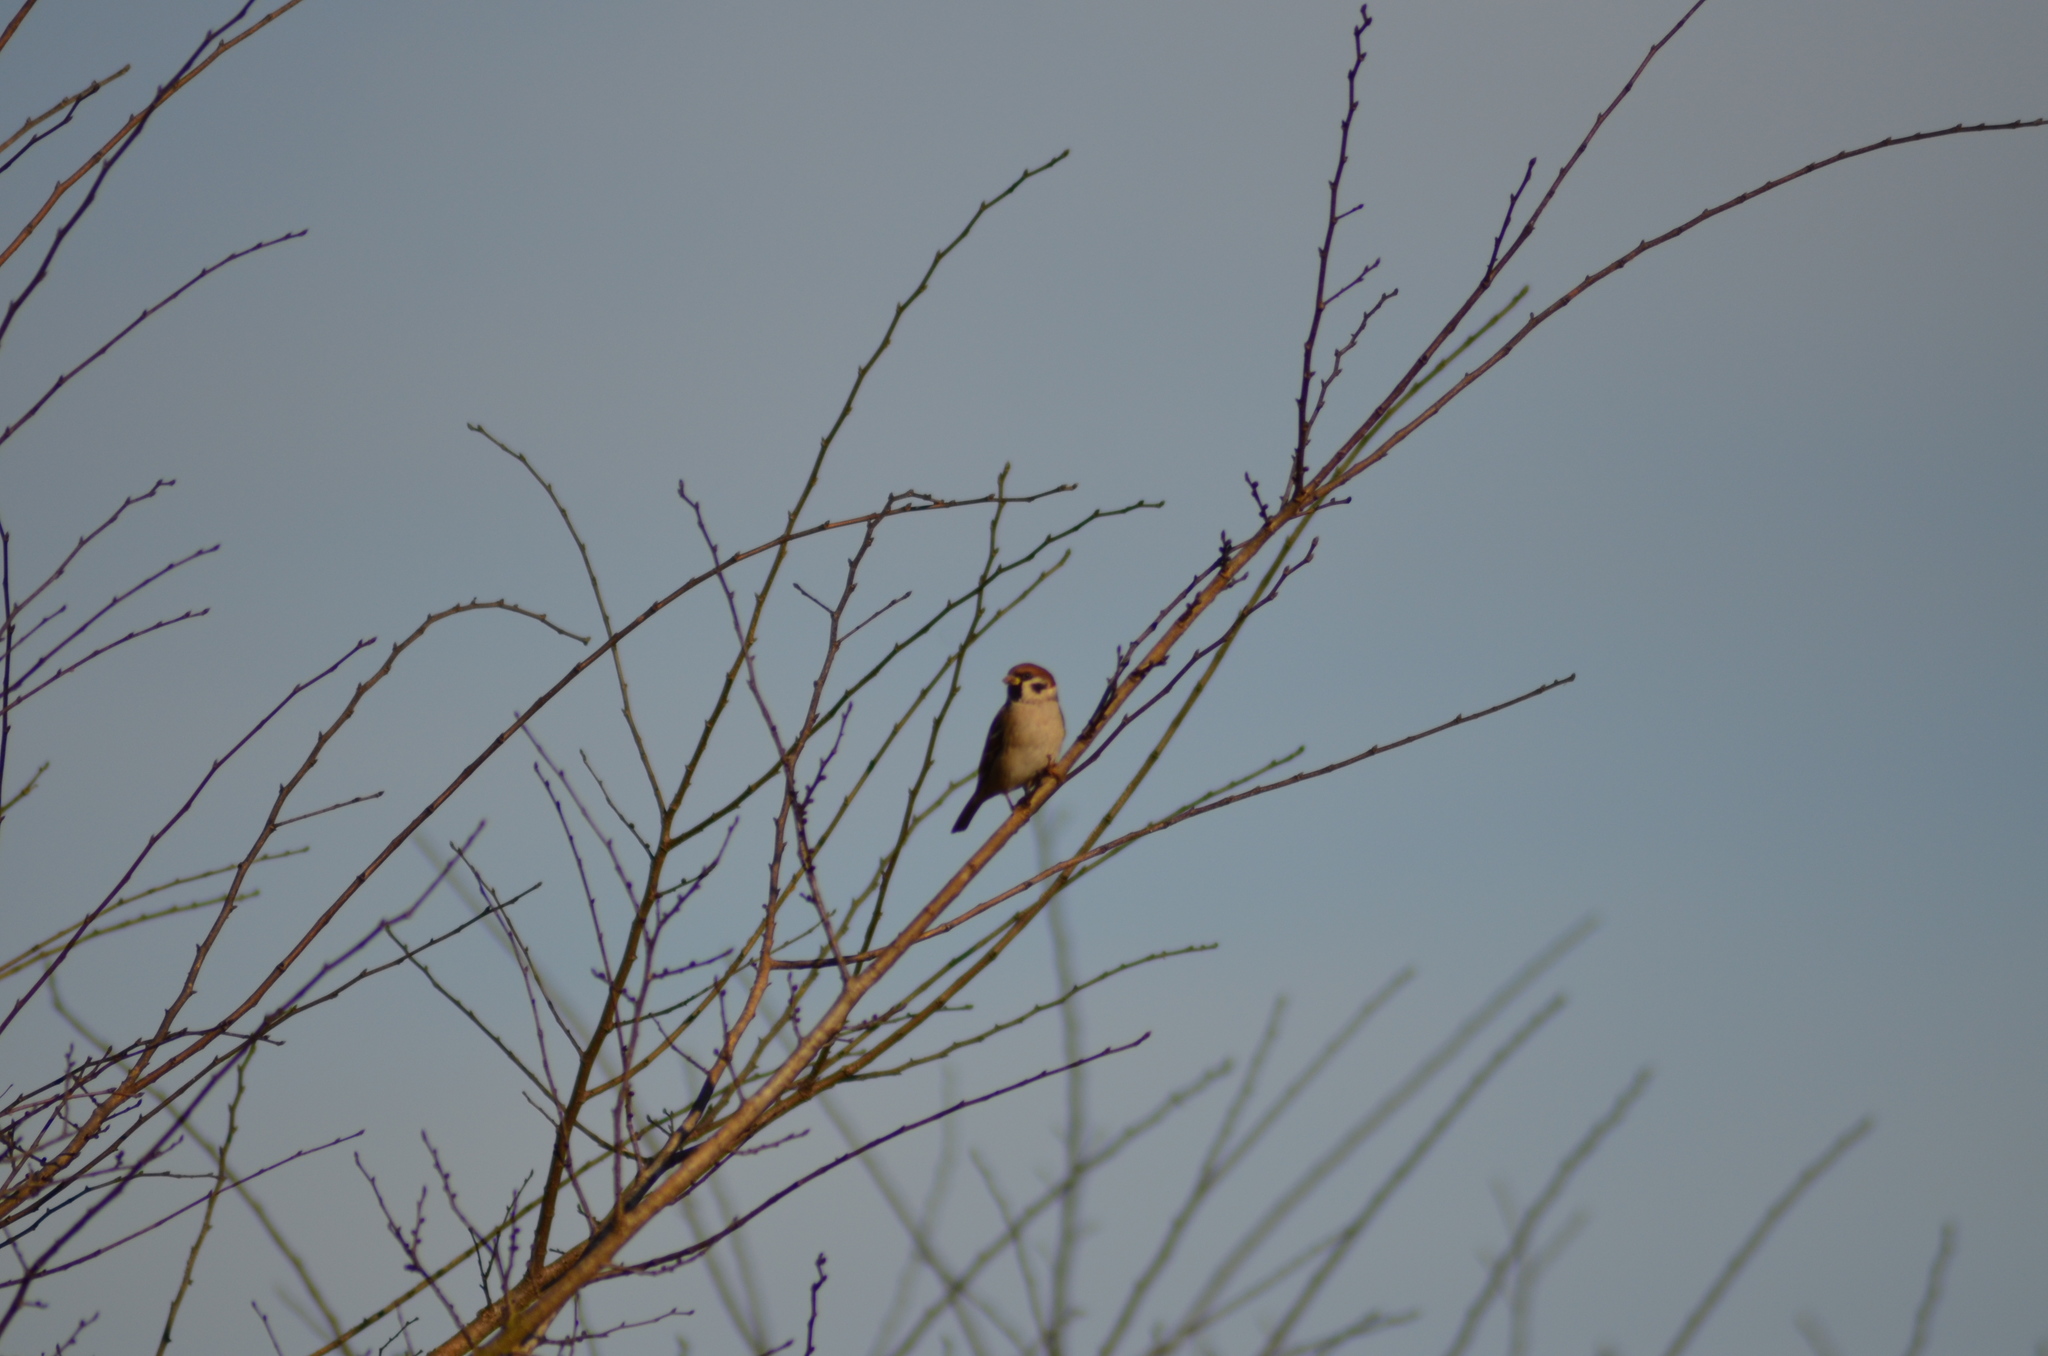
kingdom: Animalia
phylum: Chordata
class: Aves
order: Passeriformes
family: Passeridae
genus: Passer
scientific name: Passer montanus
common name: Eurasian tree sparrow
